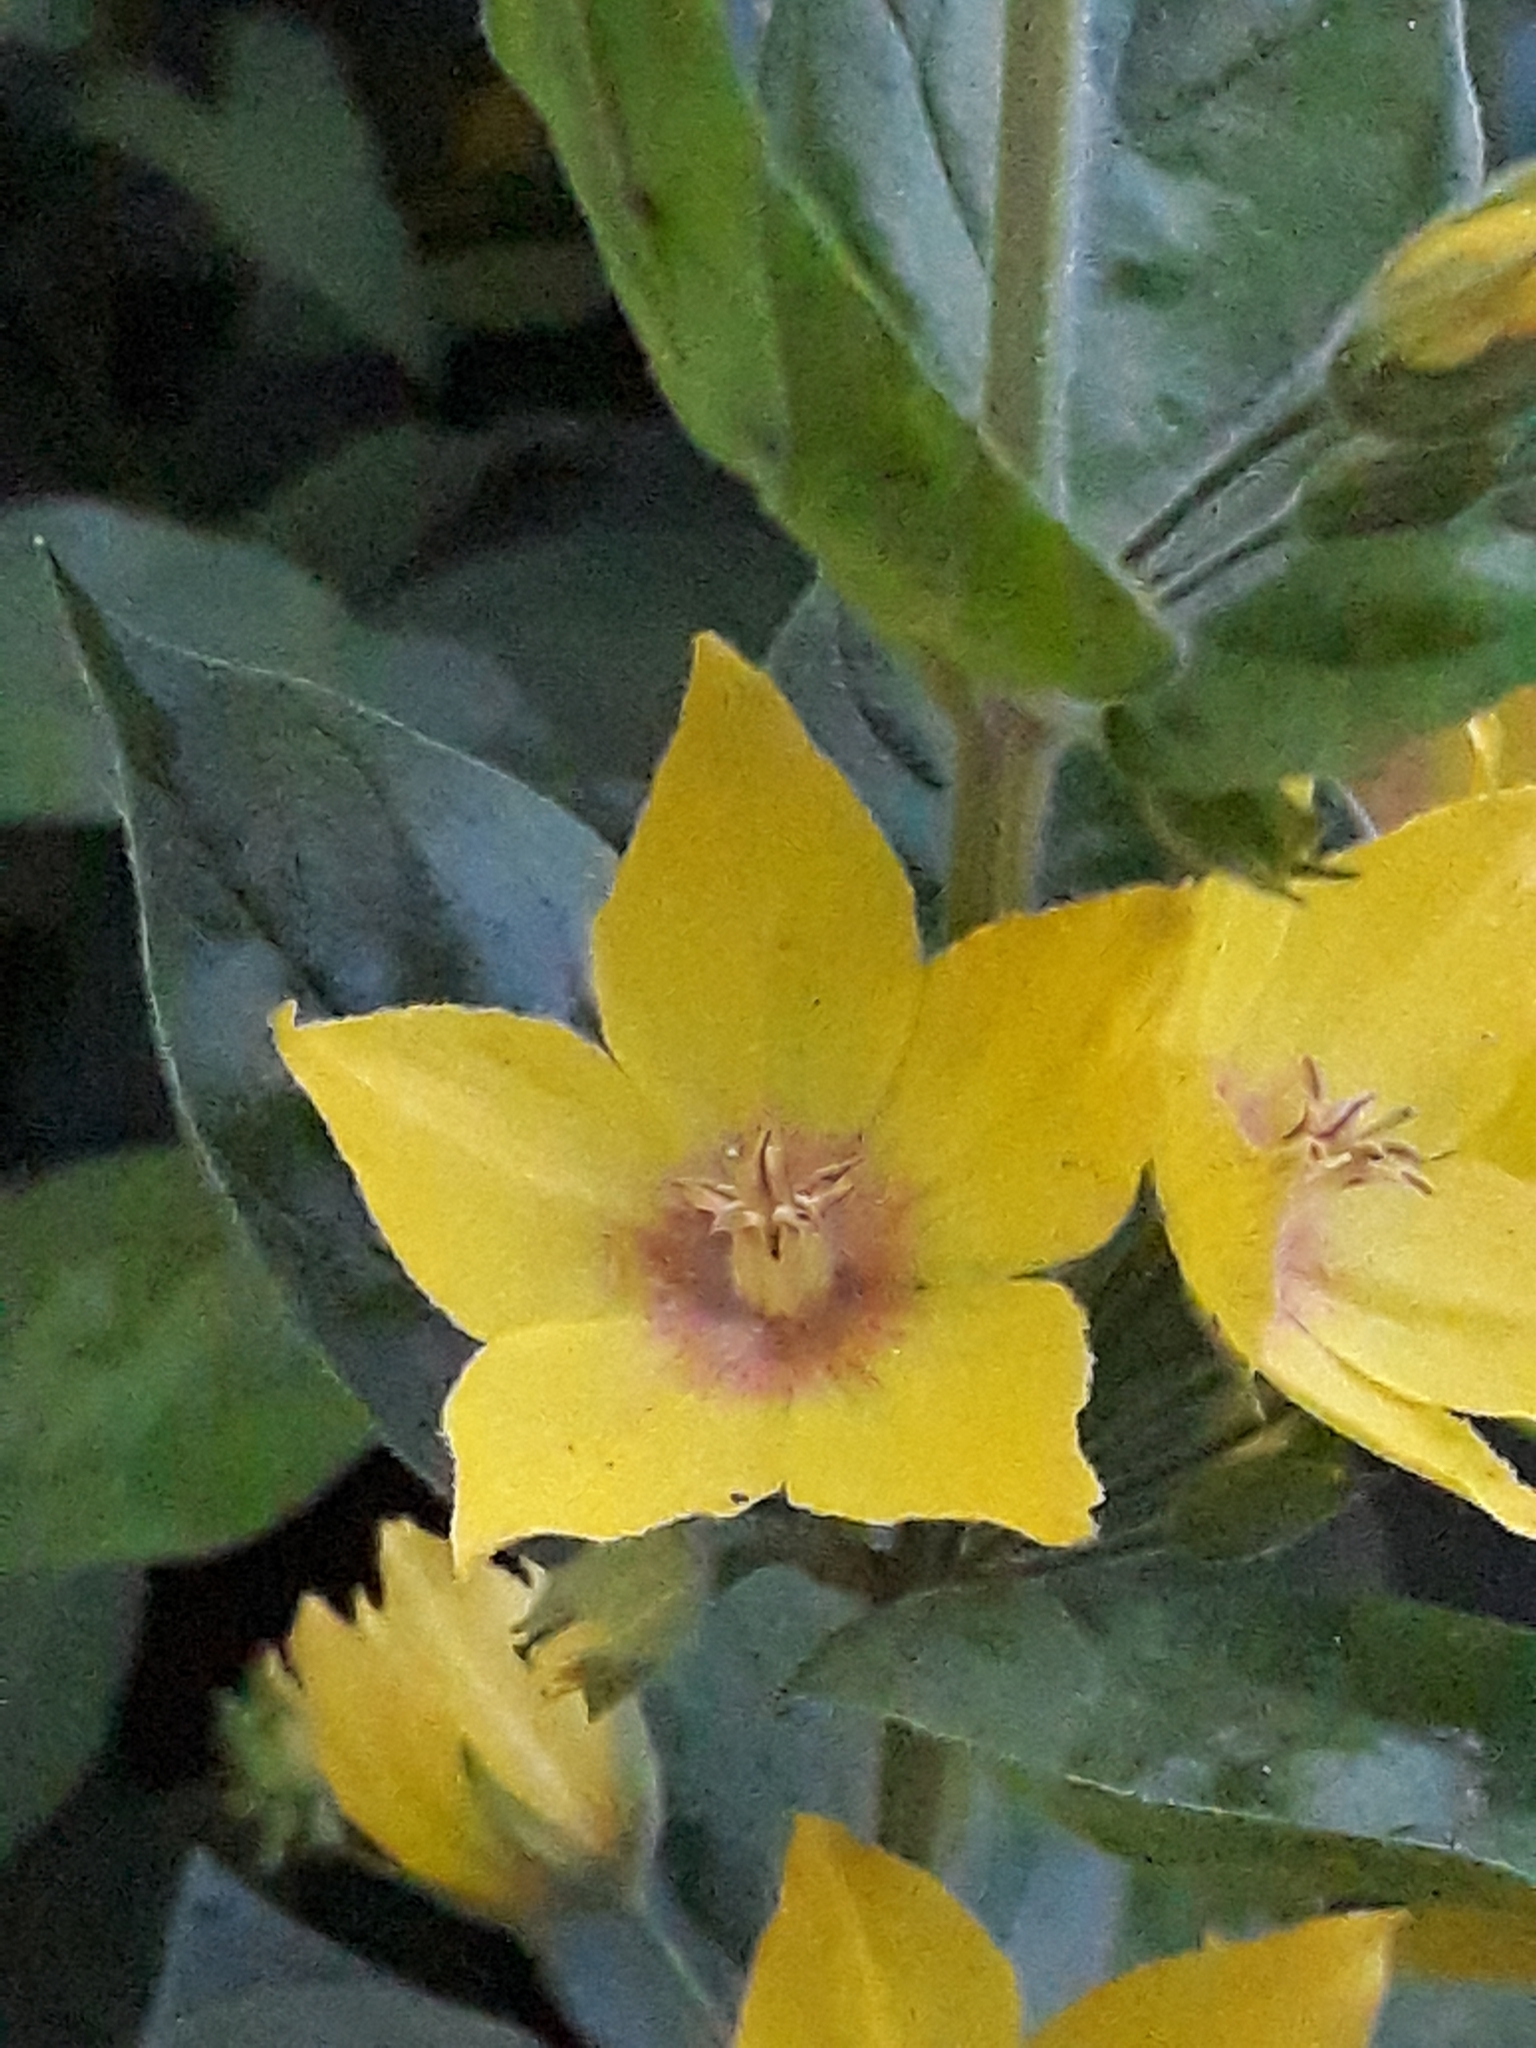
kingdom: Plantae
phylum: Tracheophyta
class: Magnoliopsida
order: Ericales
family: Primulaceae
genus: Lysimachia
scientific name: Lysimachia punctata
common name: Dotted loosestrife
